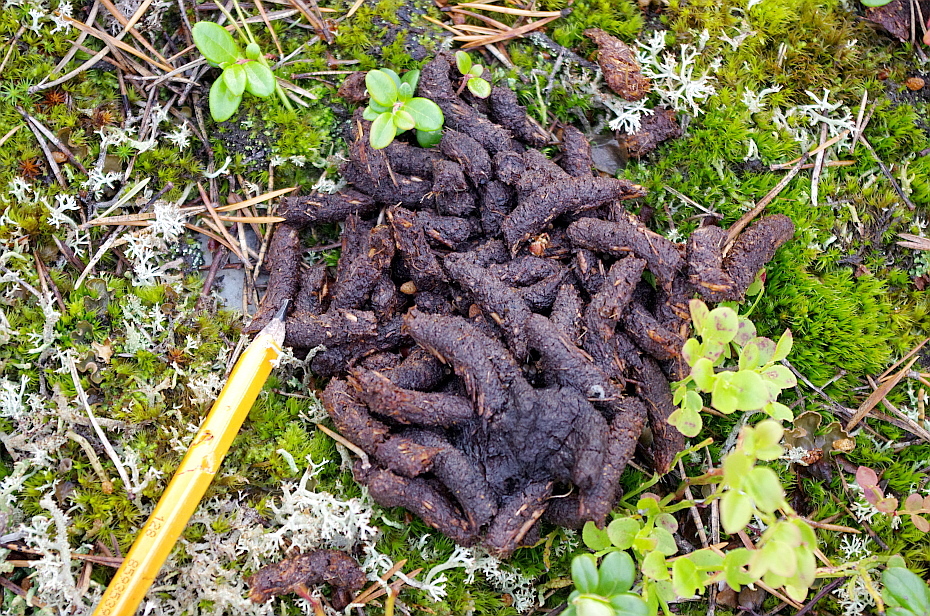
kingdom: Animalia
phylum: Chordata
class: Aves
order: Galliformes
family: Phasianidae
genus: Lyrurus
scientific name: Lyrurus tetrix
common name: Black grouse
